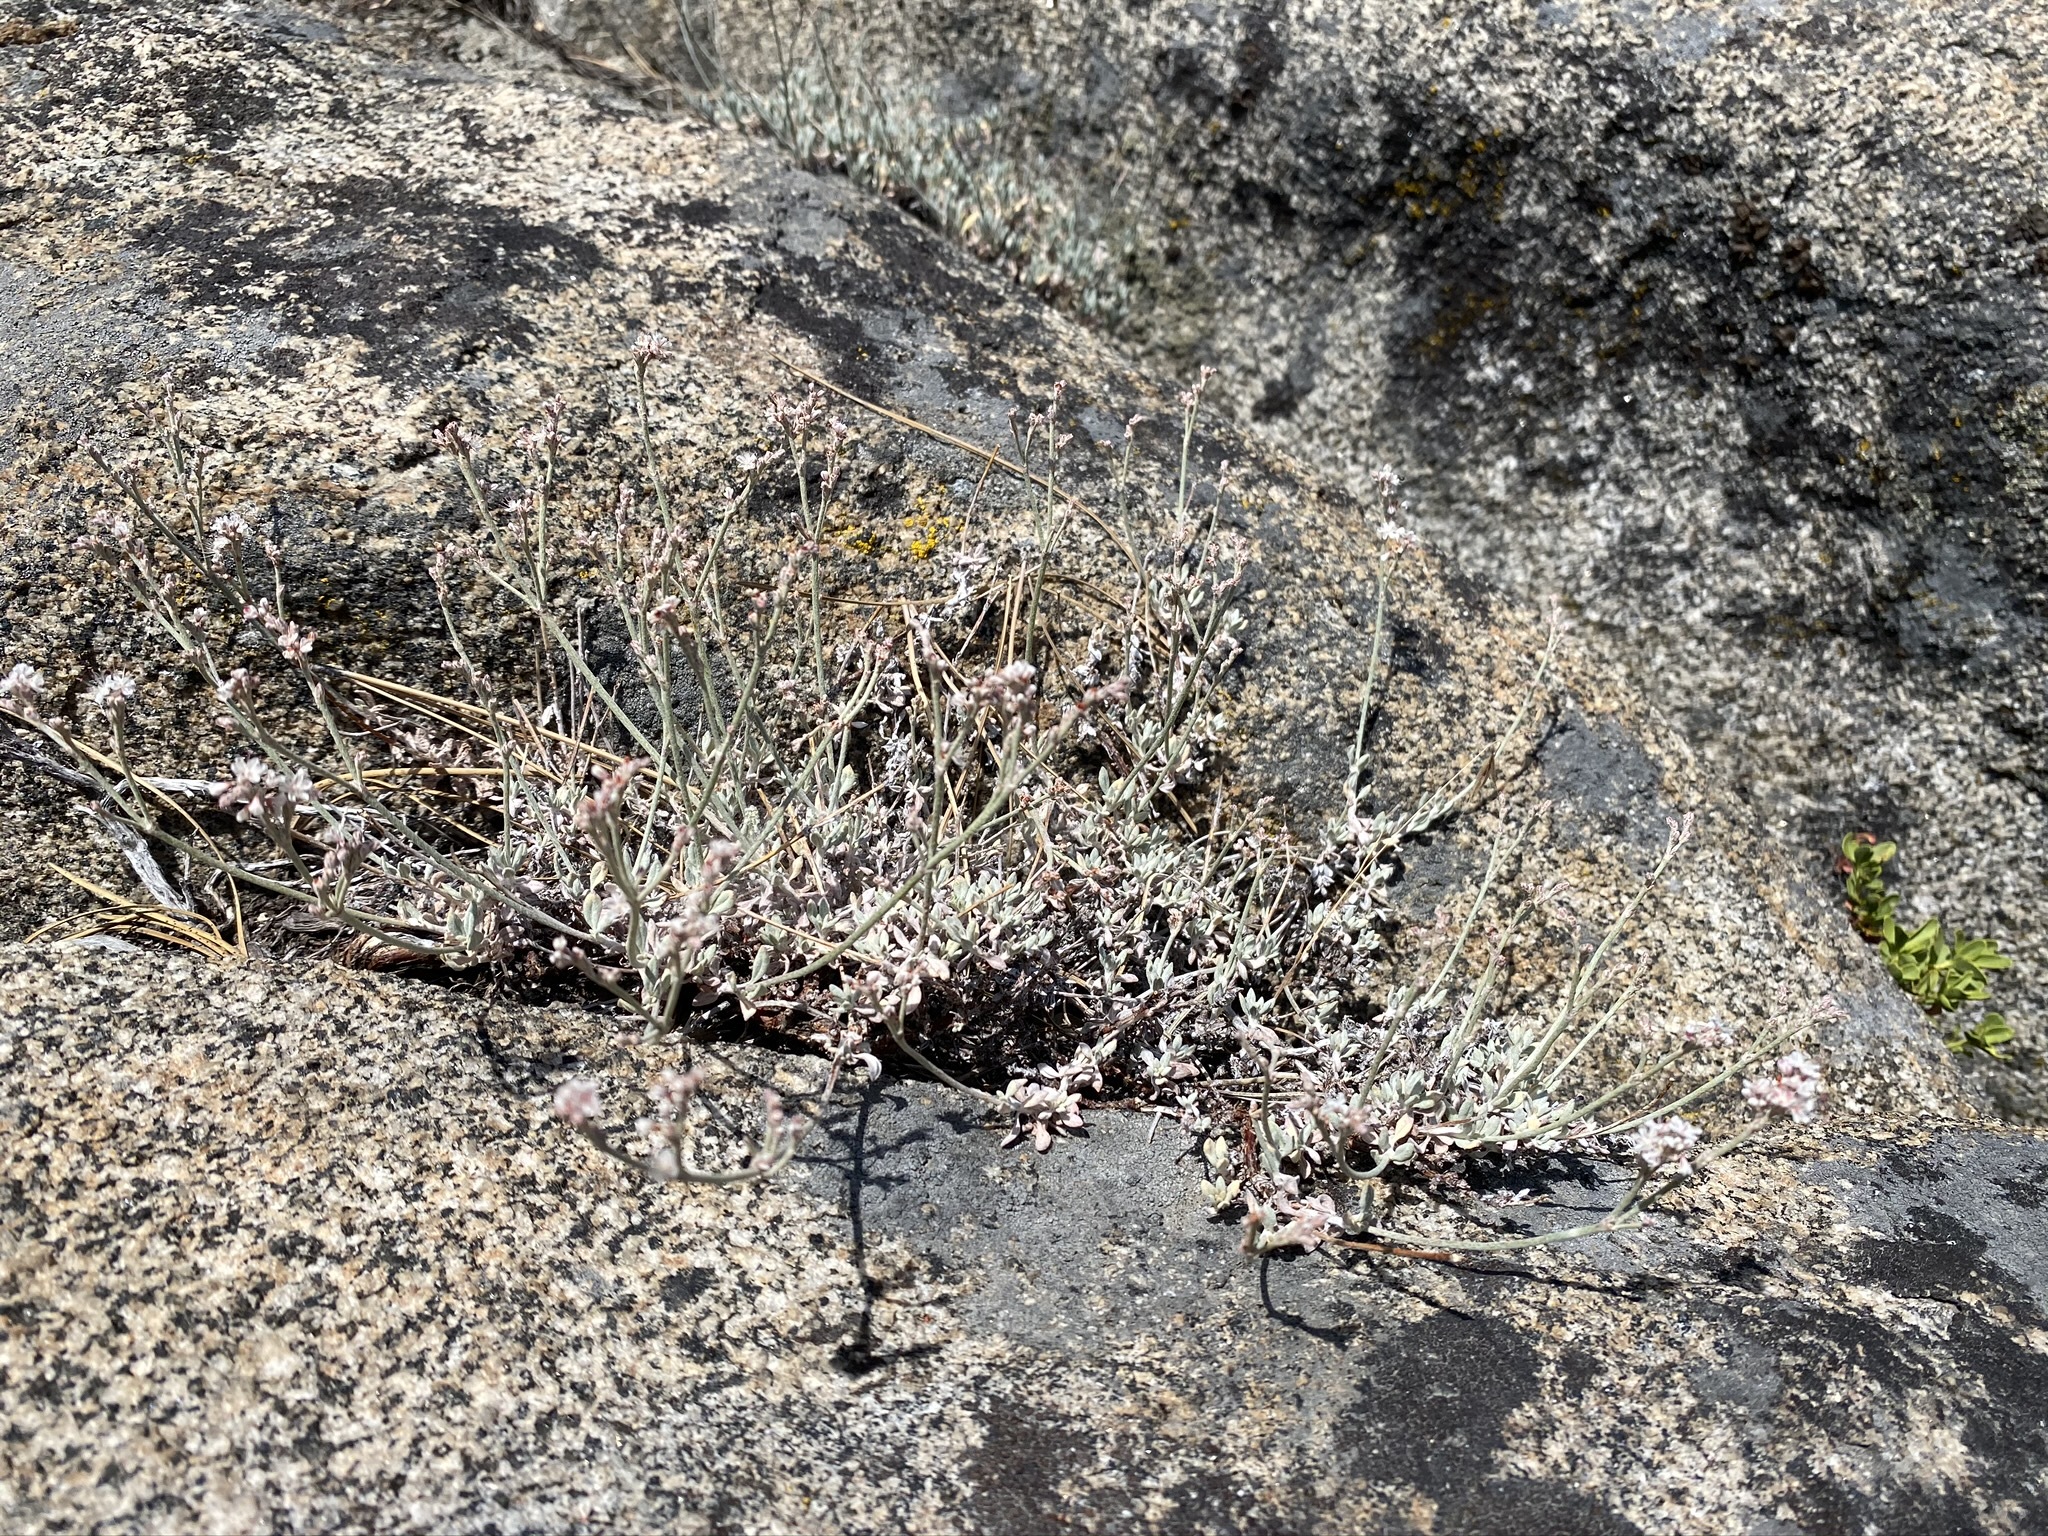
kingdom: Plantae
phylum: Tracheophyta
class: Magnoliopsida
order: Caryophyllales
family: Polygonaceae
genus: Eriogonum
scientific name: Eriogonum wrightii
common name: Bastard-sage
